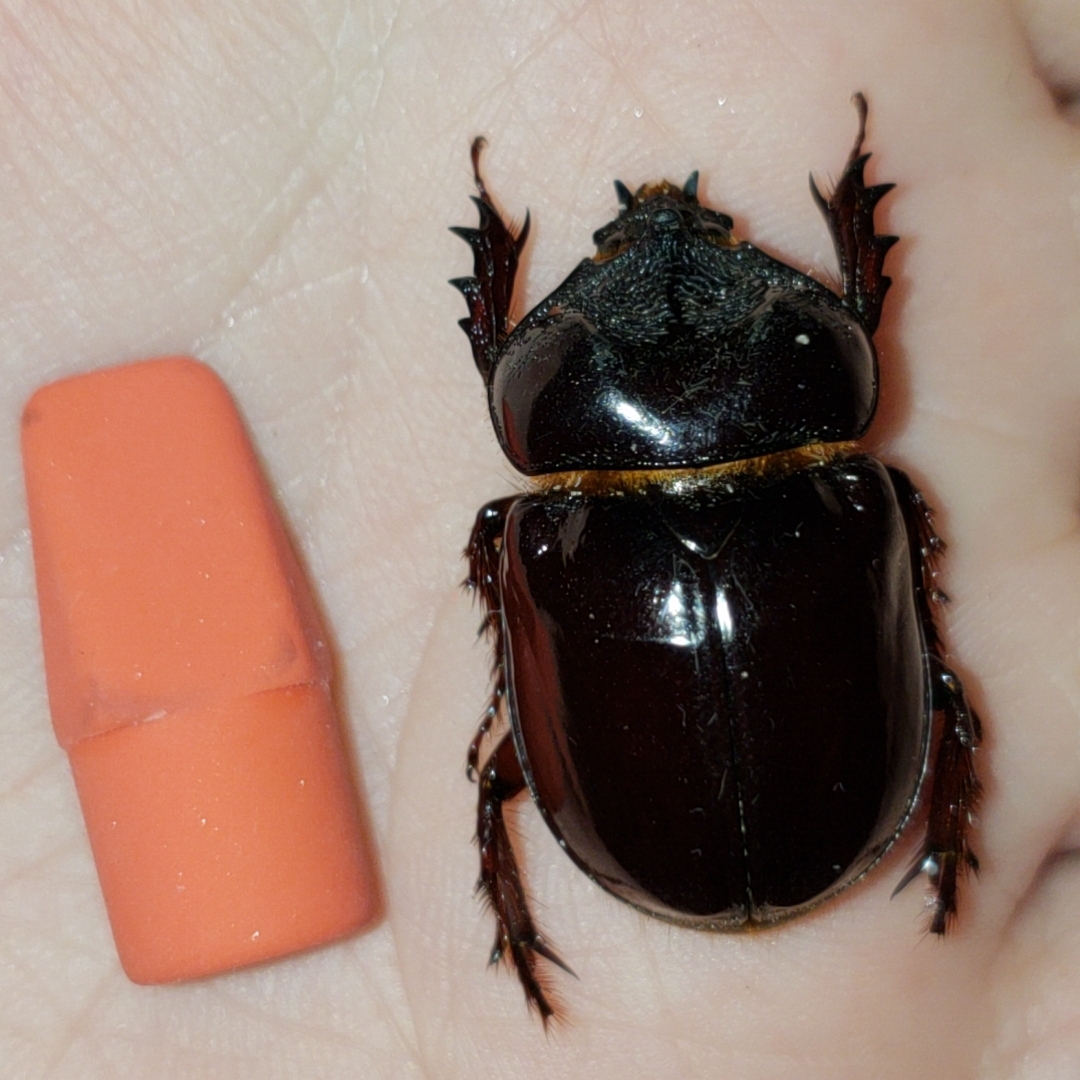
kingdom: Animalia
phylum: Arthropoda
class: Insecta
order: Coleoptera
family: Scarabaeidae
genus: Strategus
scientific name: Strategus antaeus
